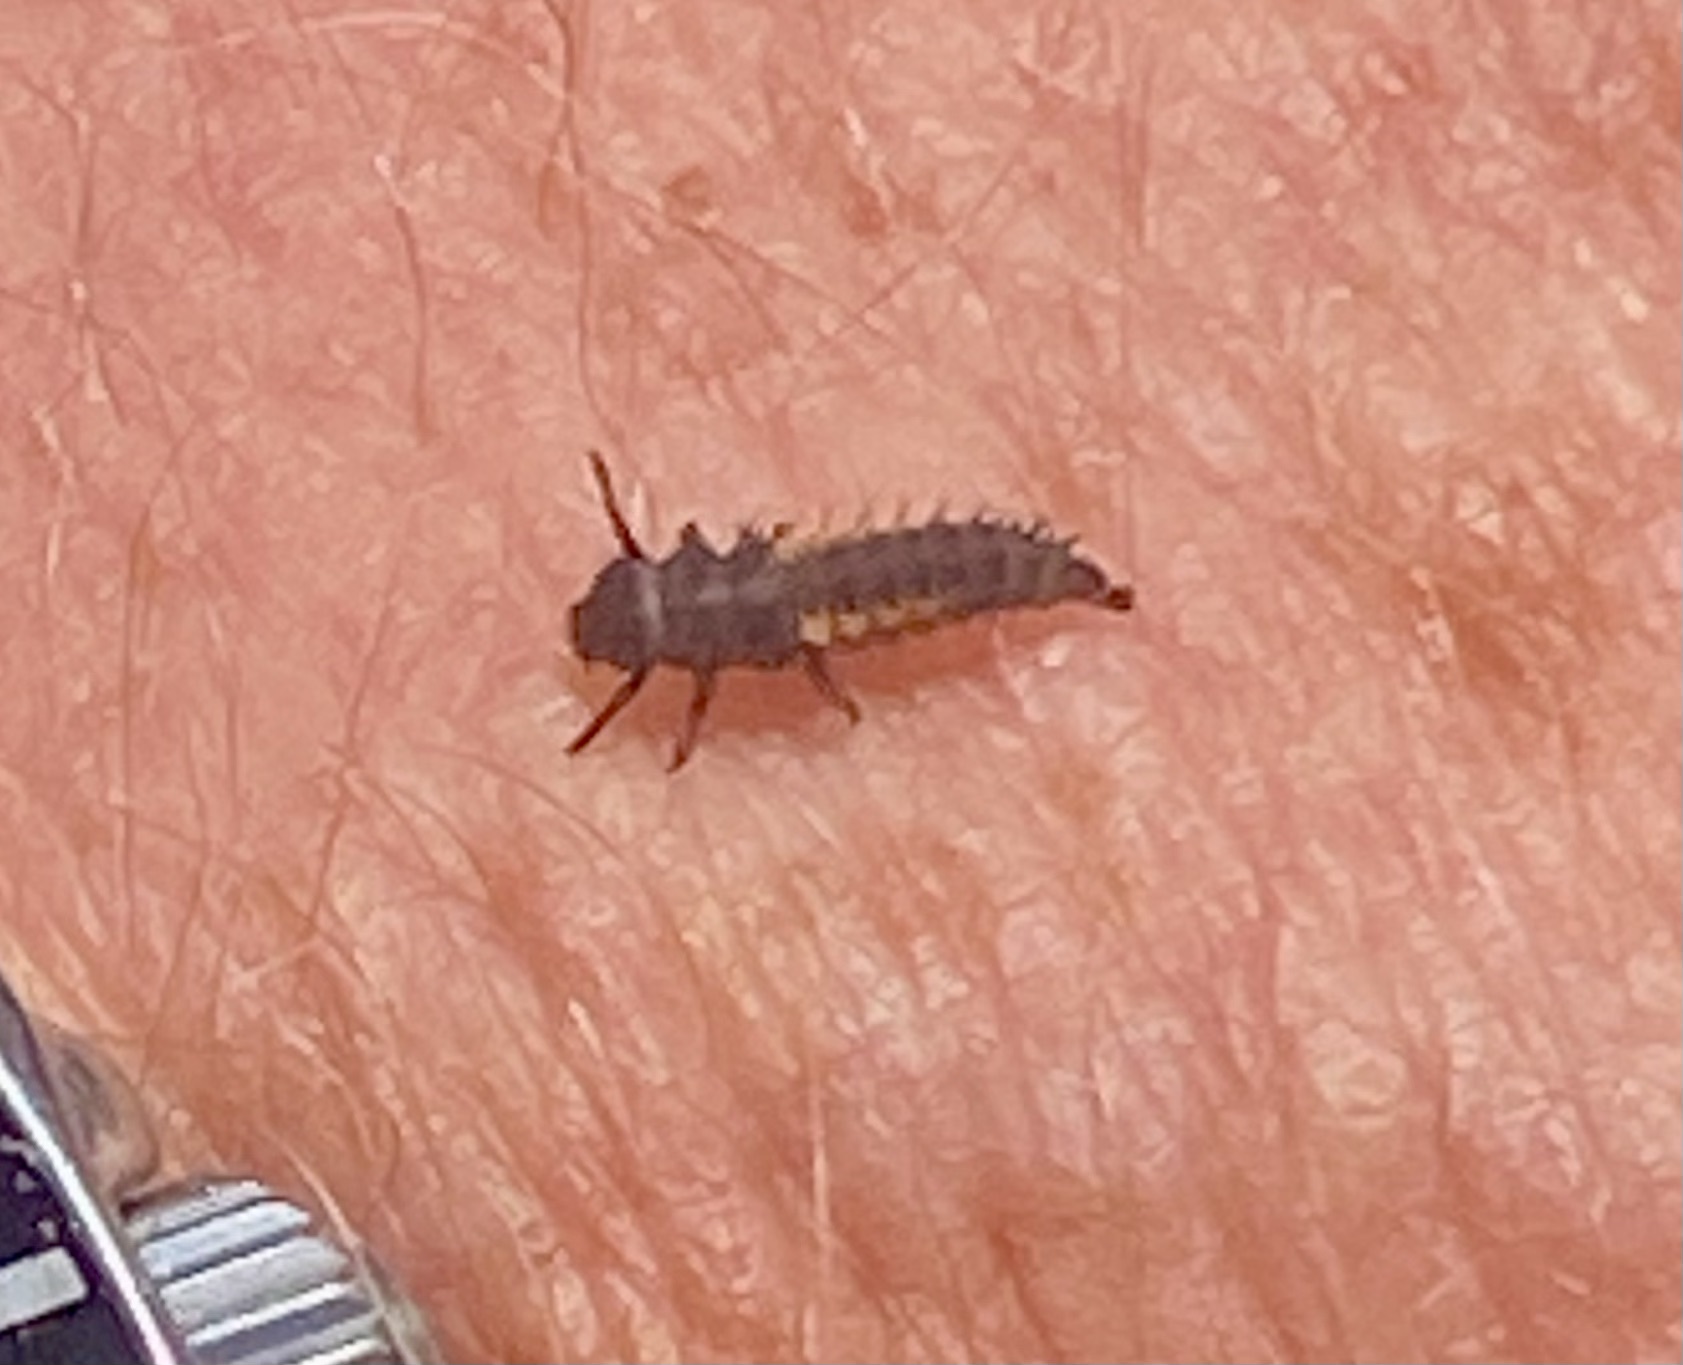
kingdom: Animalia
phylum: Arthropoda
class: Insecta
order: Coleoptera
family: Coccinellidae
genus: Harmonia
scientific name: Harmonia axyridis
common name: Harlequin ladybird
